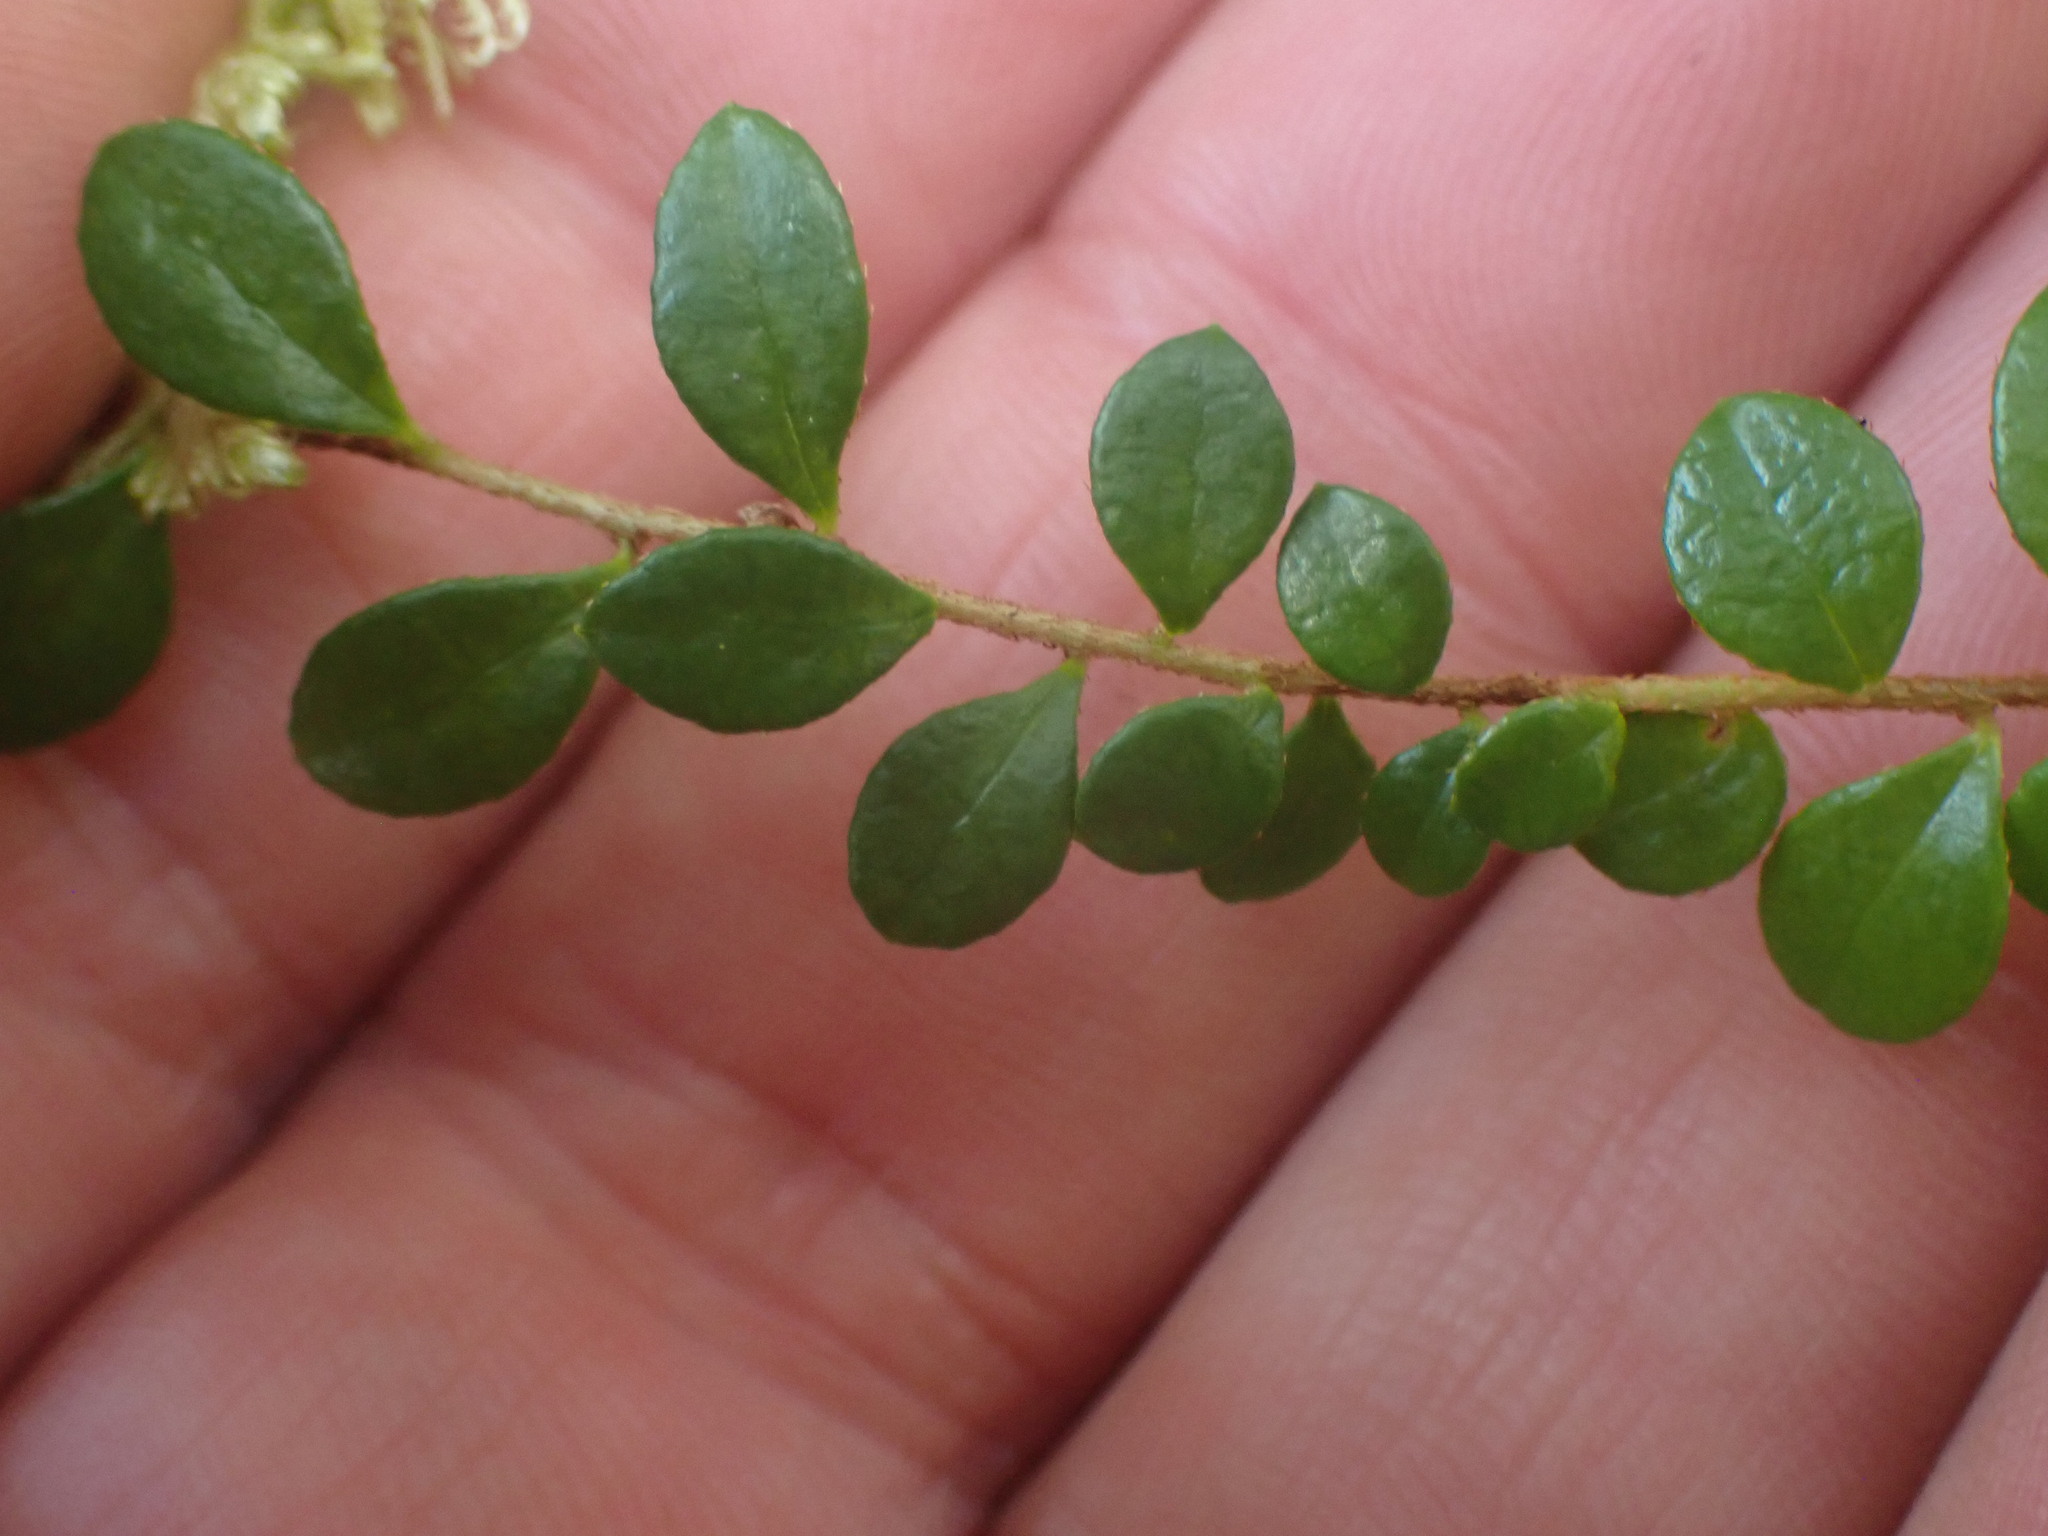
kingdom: Plantae
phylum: Tracheophyta
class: Magnoliopsida
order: Ericales
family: Ericaceae
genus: Gaultheria
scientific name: Gaultheria hispidula
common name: Cancer wintergreen
